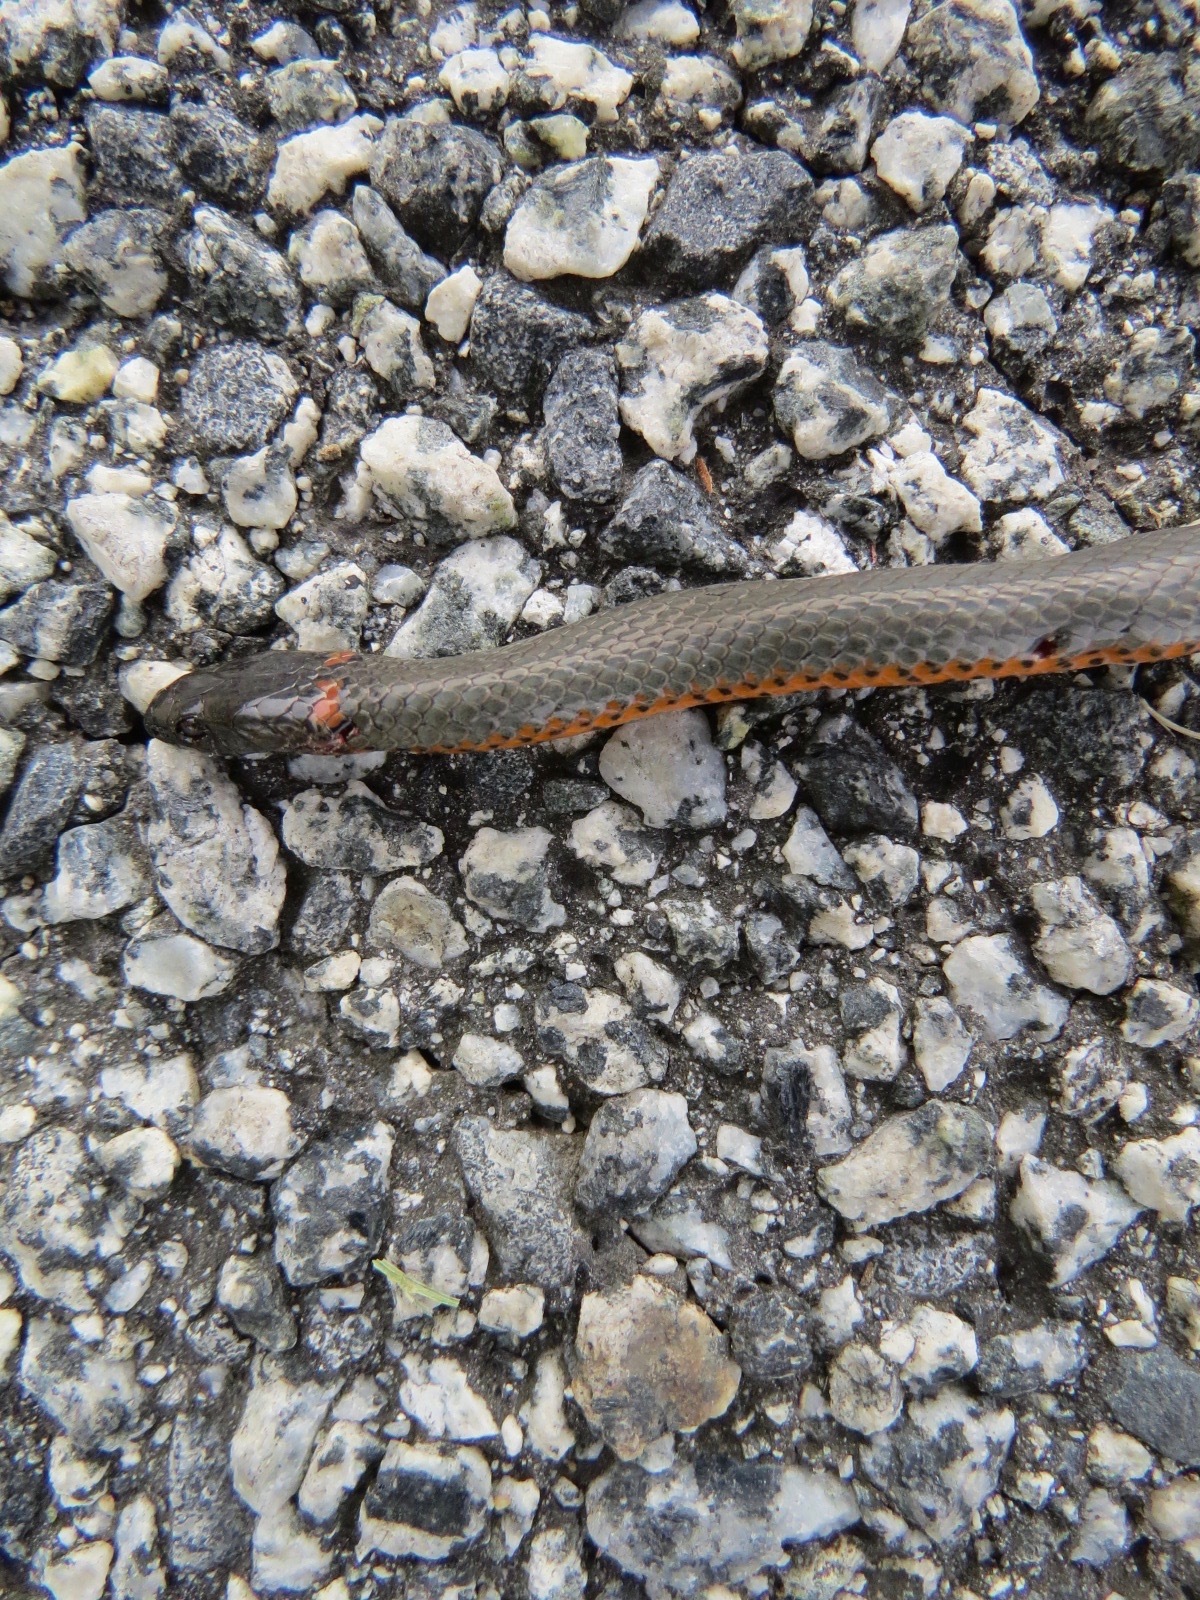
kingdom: Animalia
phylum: Chordata
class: Squamata
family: Colubridae
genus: Diadophis
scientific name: Diadophis punctatus
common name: Ringneck snake
